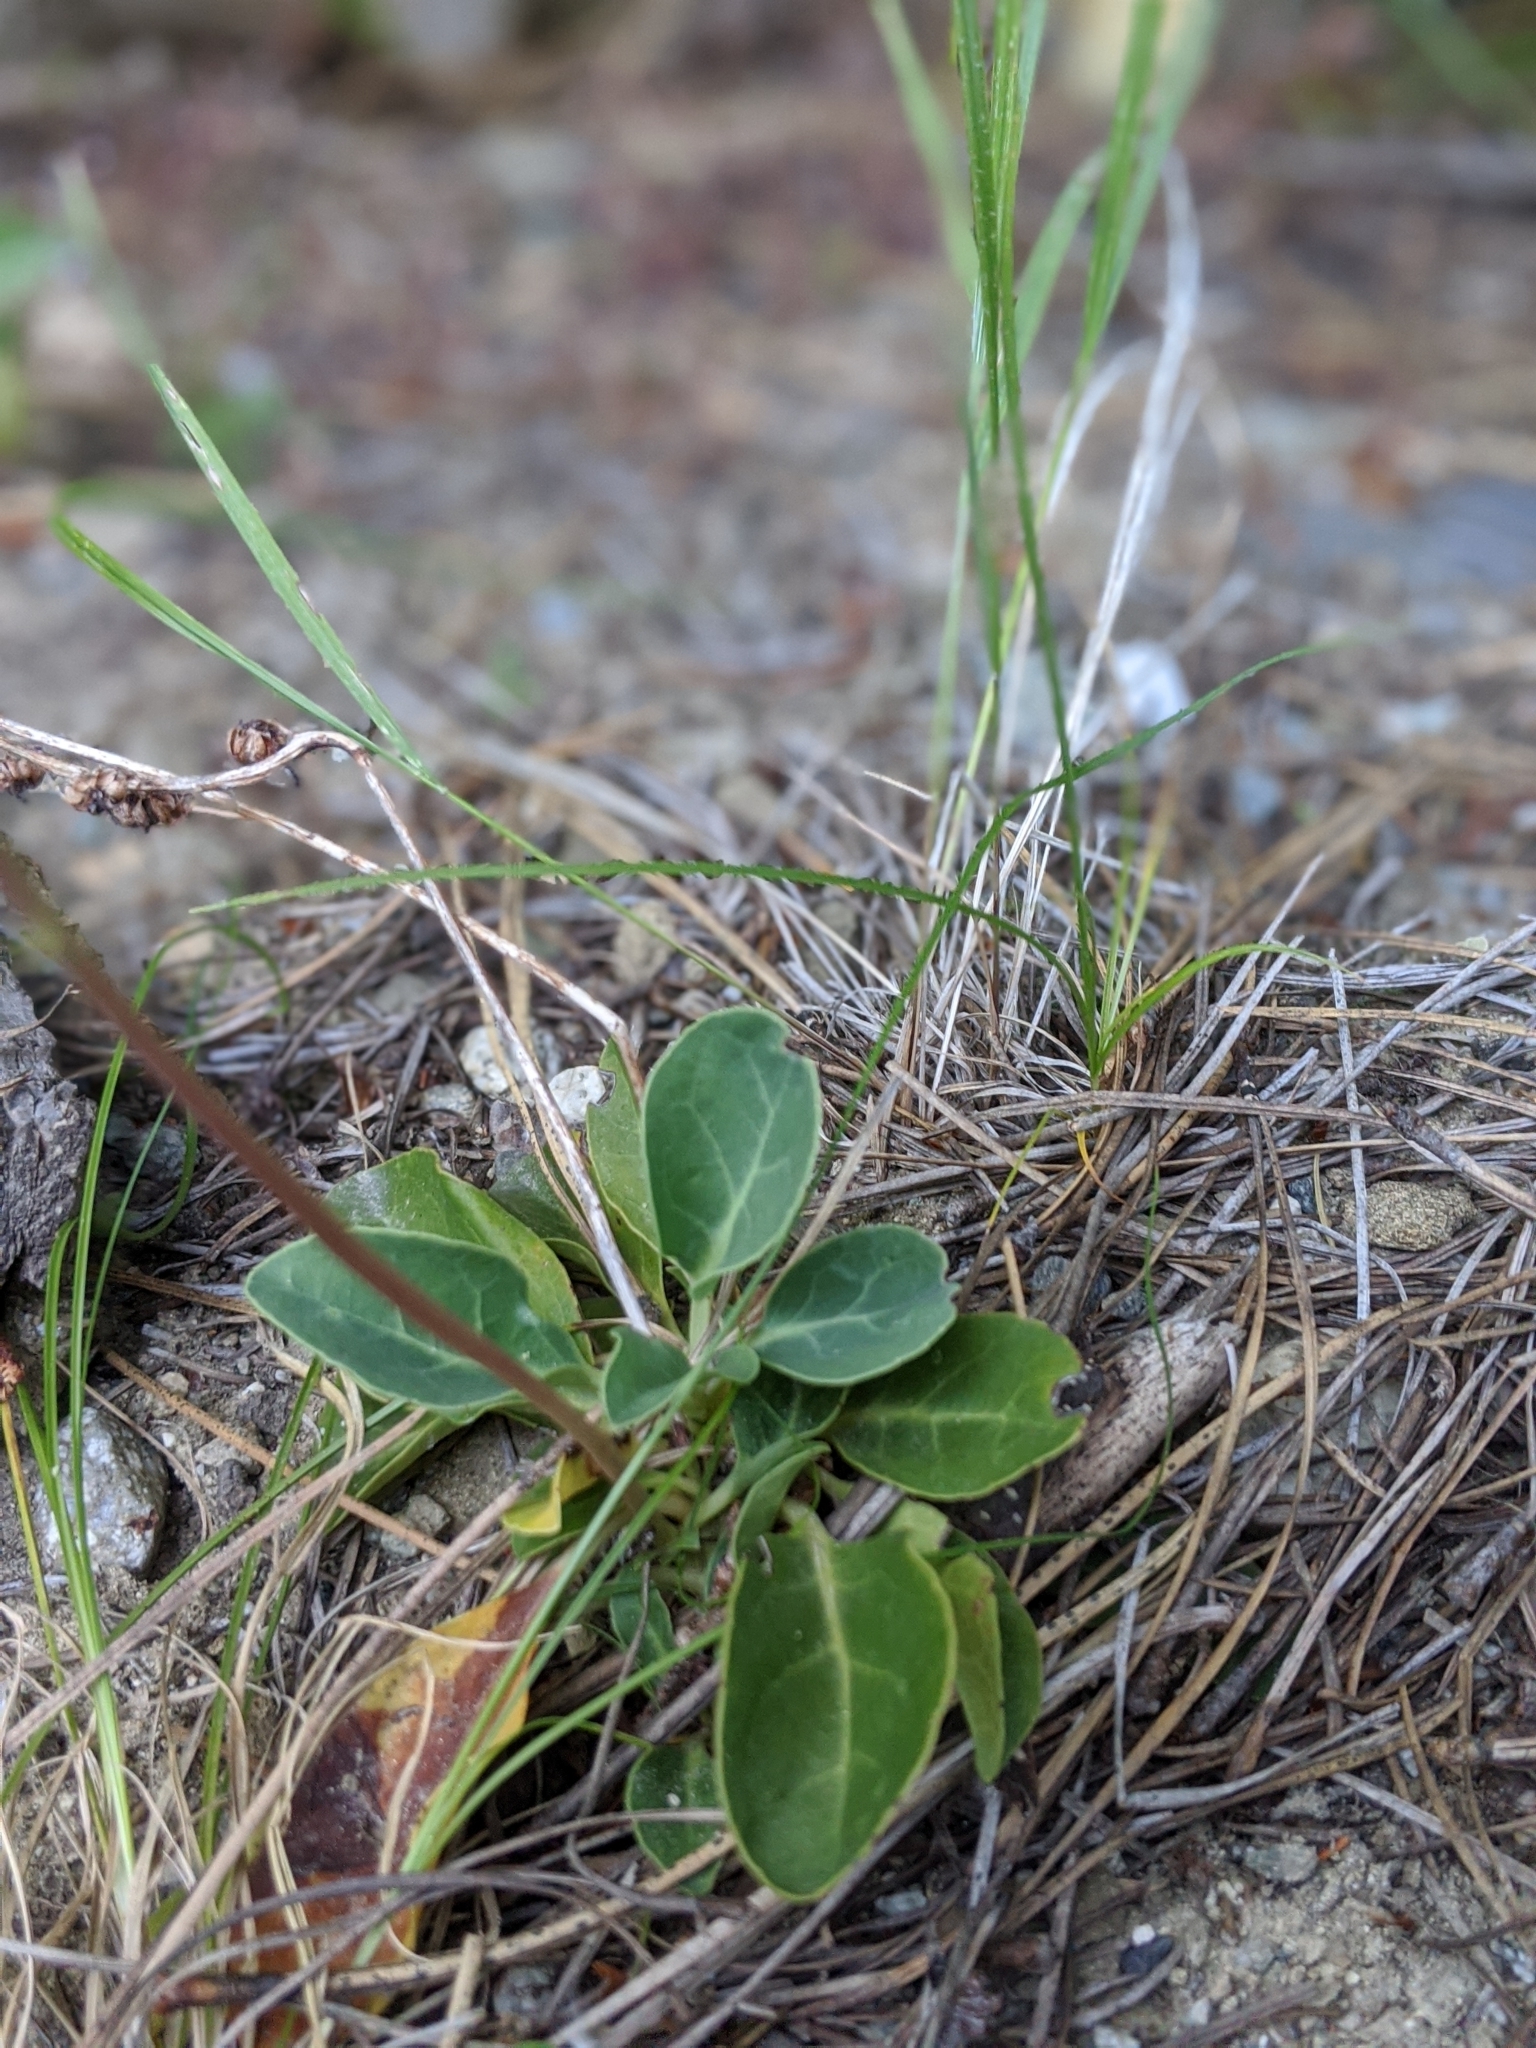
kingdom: Plantae
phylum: Tracheophyta
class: Magnoliopsida
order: Ericales
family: Ericaceae
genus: Pyrola
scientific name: Pyrola dentata
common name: Tooth-leaved wintergreen
